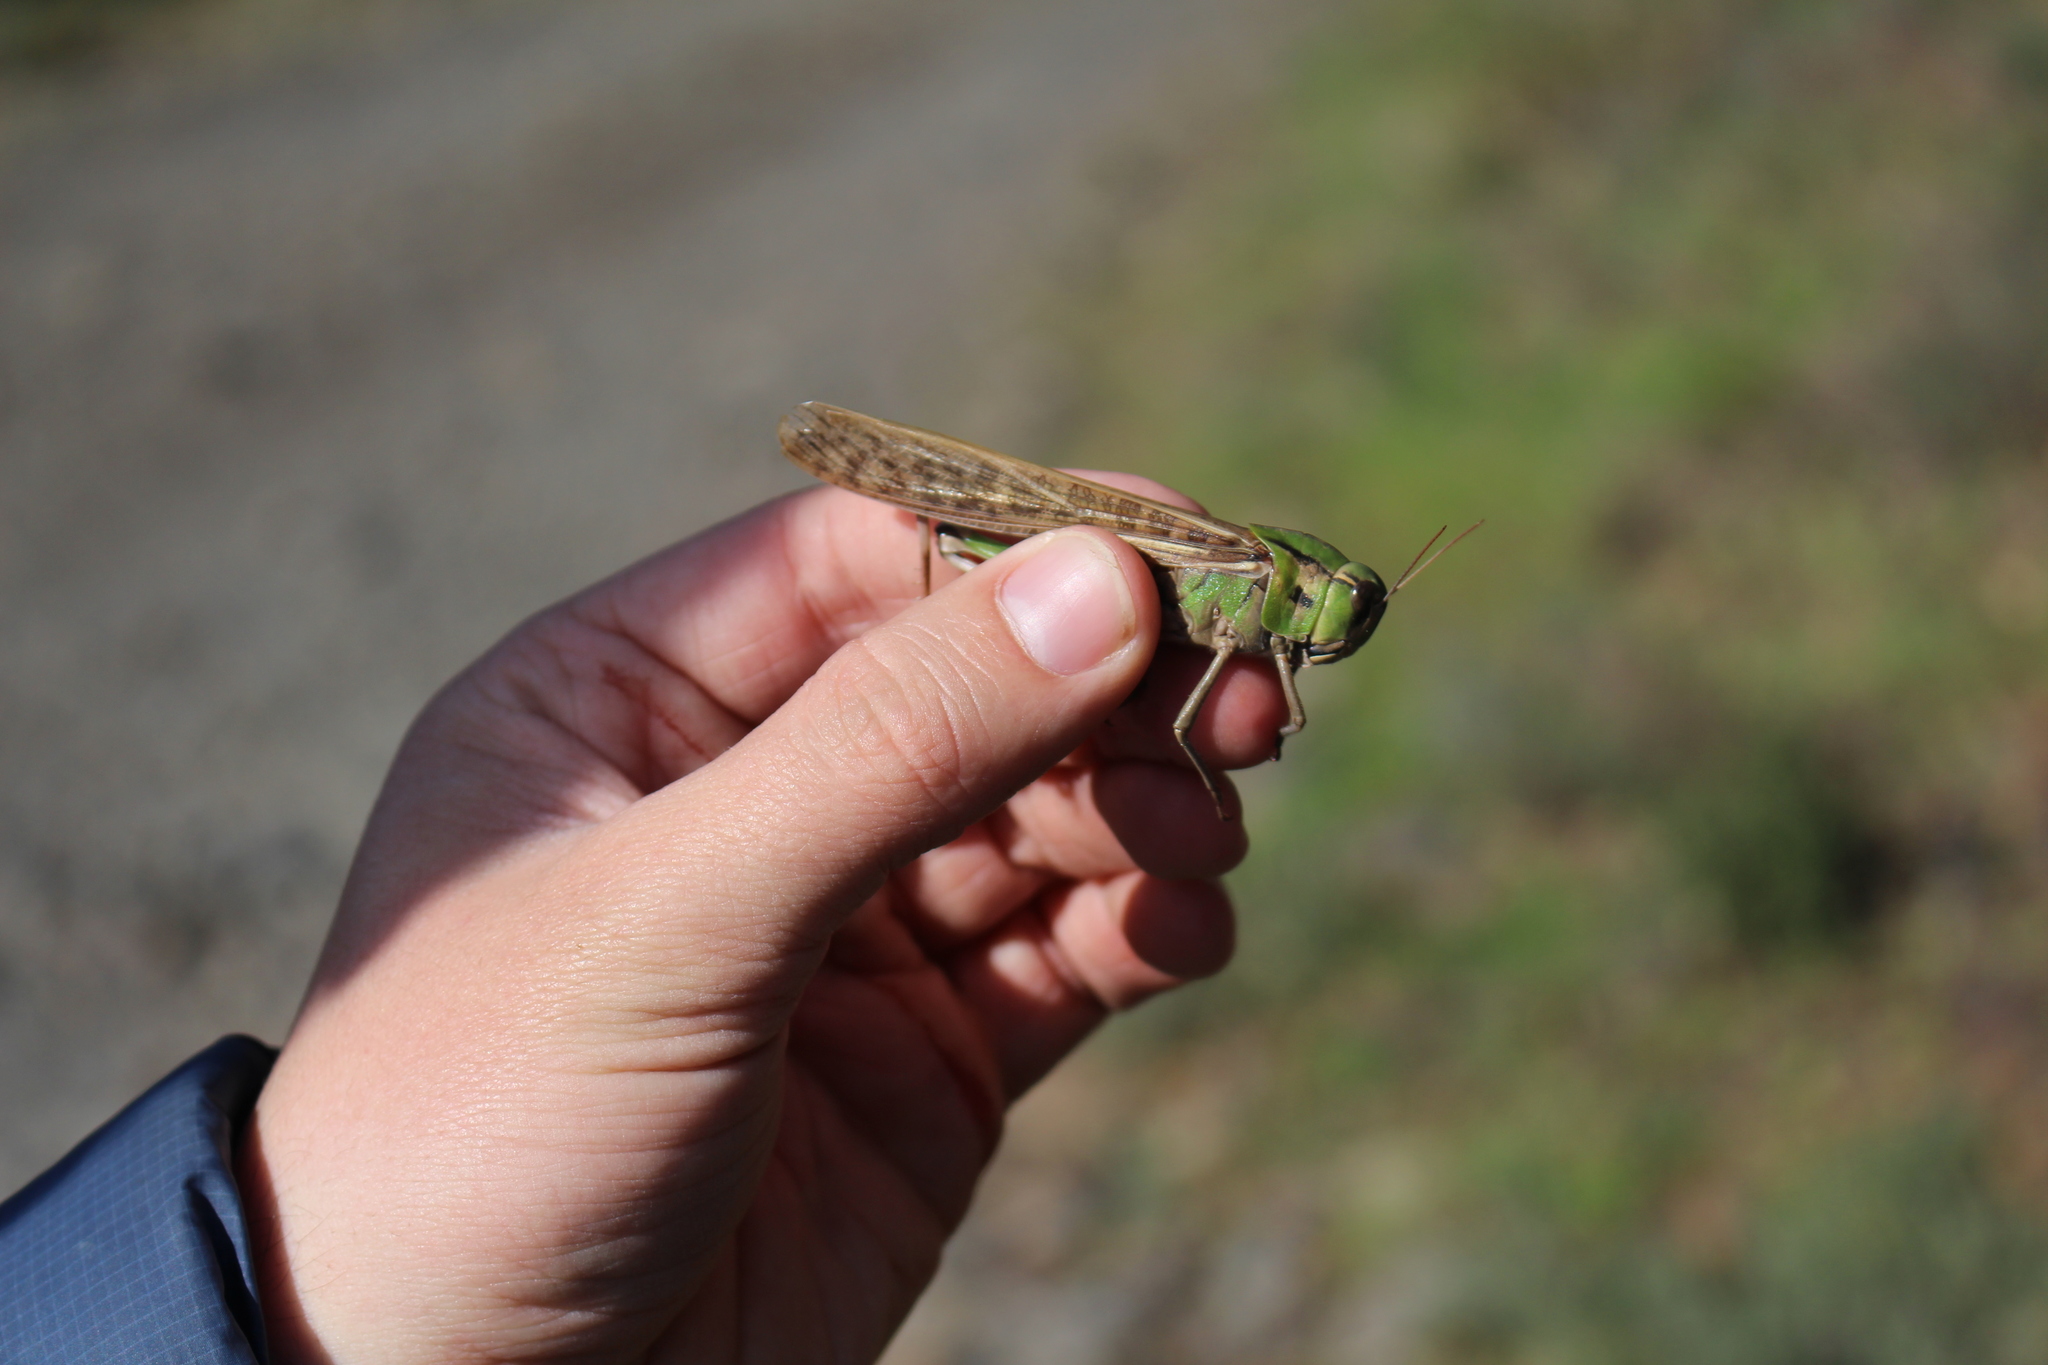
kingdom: Animalia
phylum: Arthropoda
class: Insecta
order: Orthoptera
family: Acrididae
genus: Locusta
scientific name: Locusta migratoria
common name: Migratory locust
